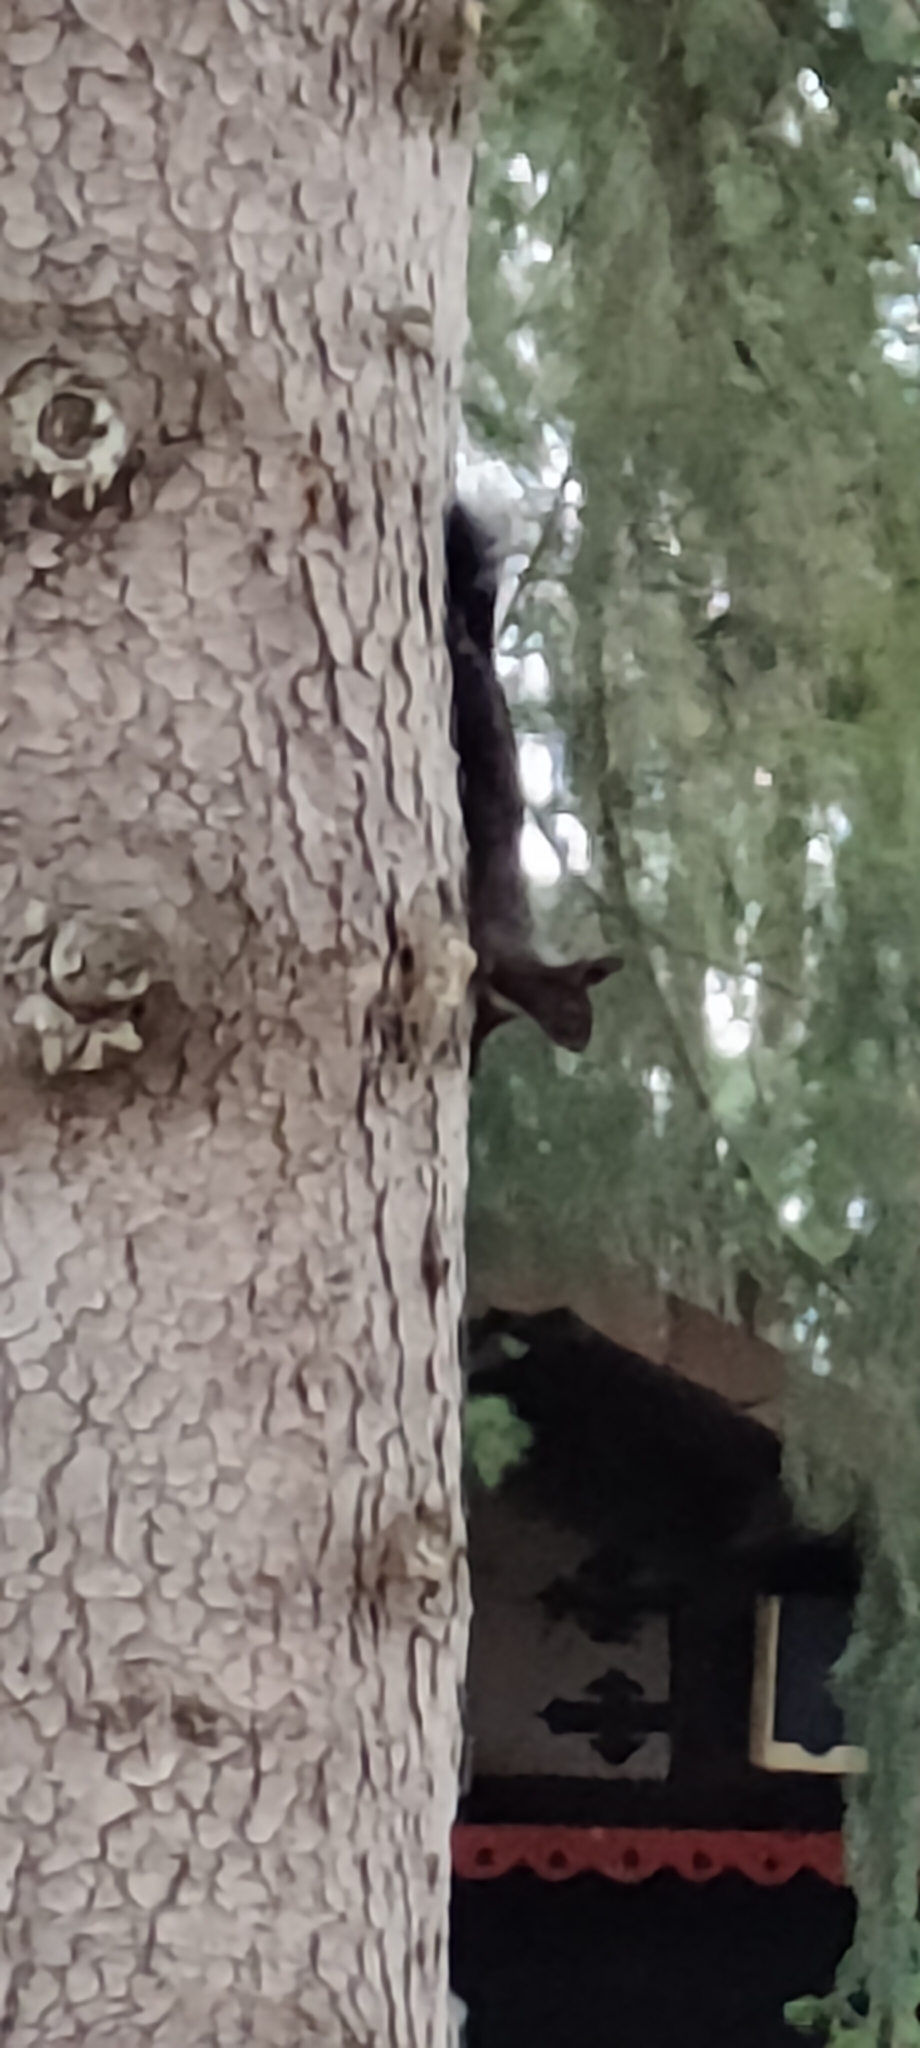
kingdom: Animalia
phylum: Chordata
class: Mammalia
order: Rodentia
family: Sciuridae
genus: Sciurus
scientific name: Sciurus vulgaris
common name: Eurasian red squirrel
